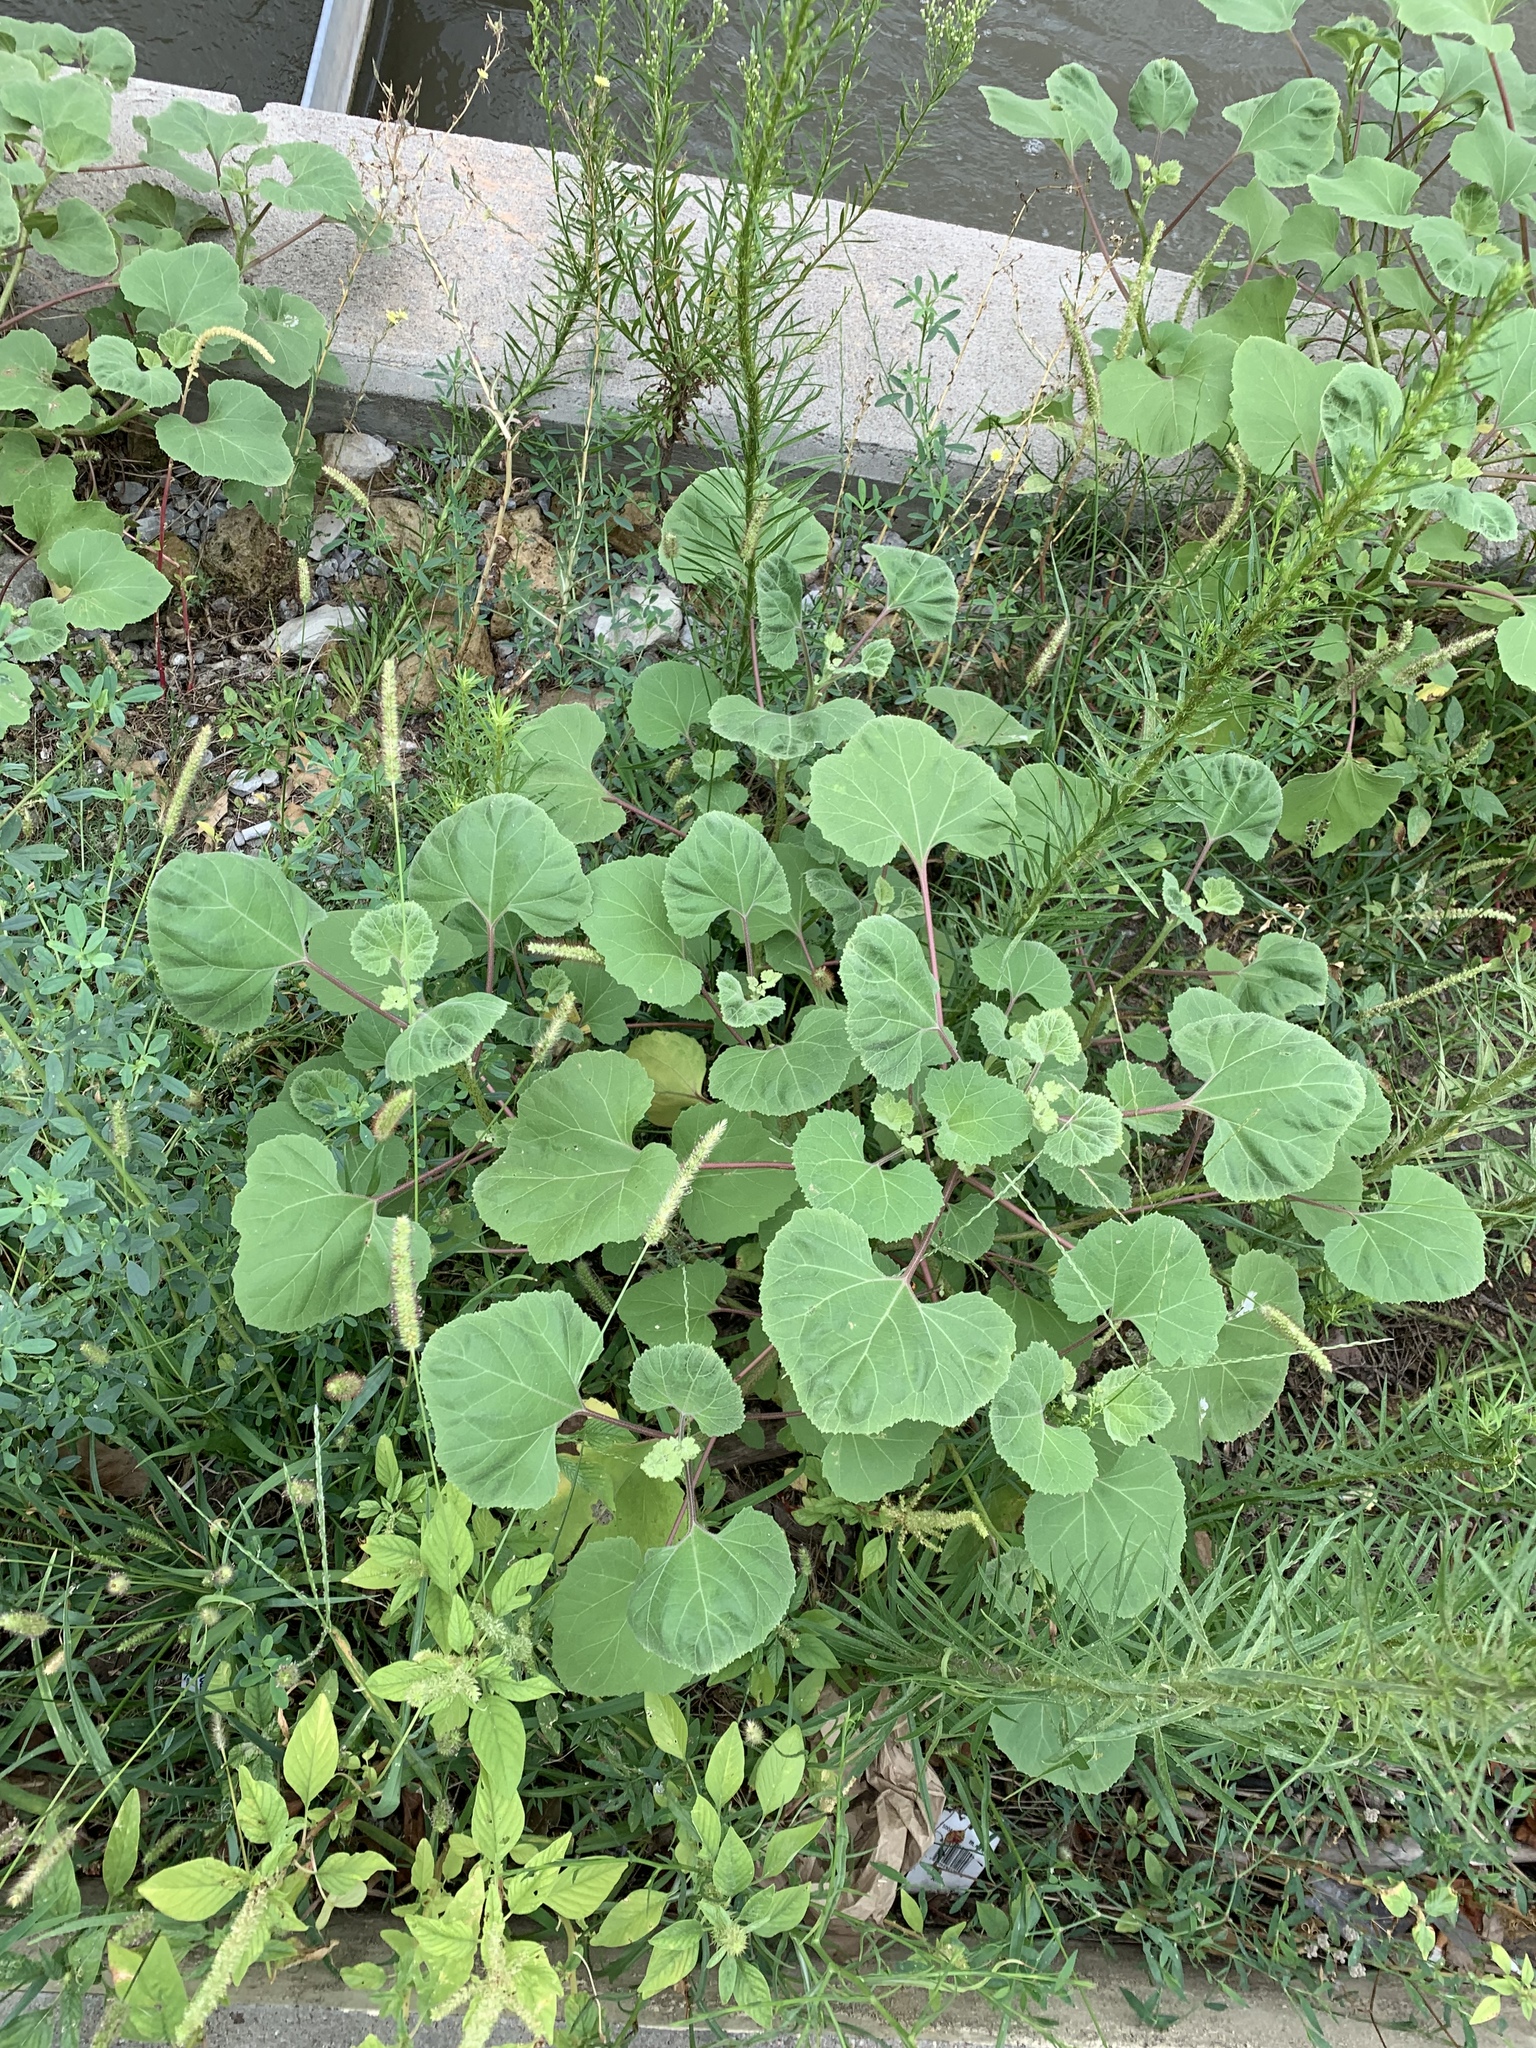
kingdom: Plantae
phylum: Tracheophyta
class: Magnoliopsida
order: Asterales
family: Asteraceae
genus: Xanthium
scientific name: Xanthium strumarium
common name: Rough cocklebur
